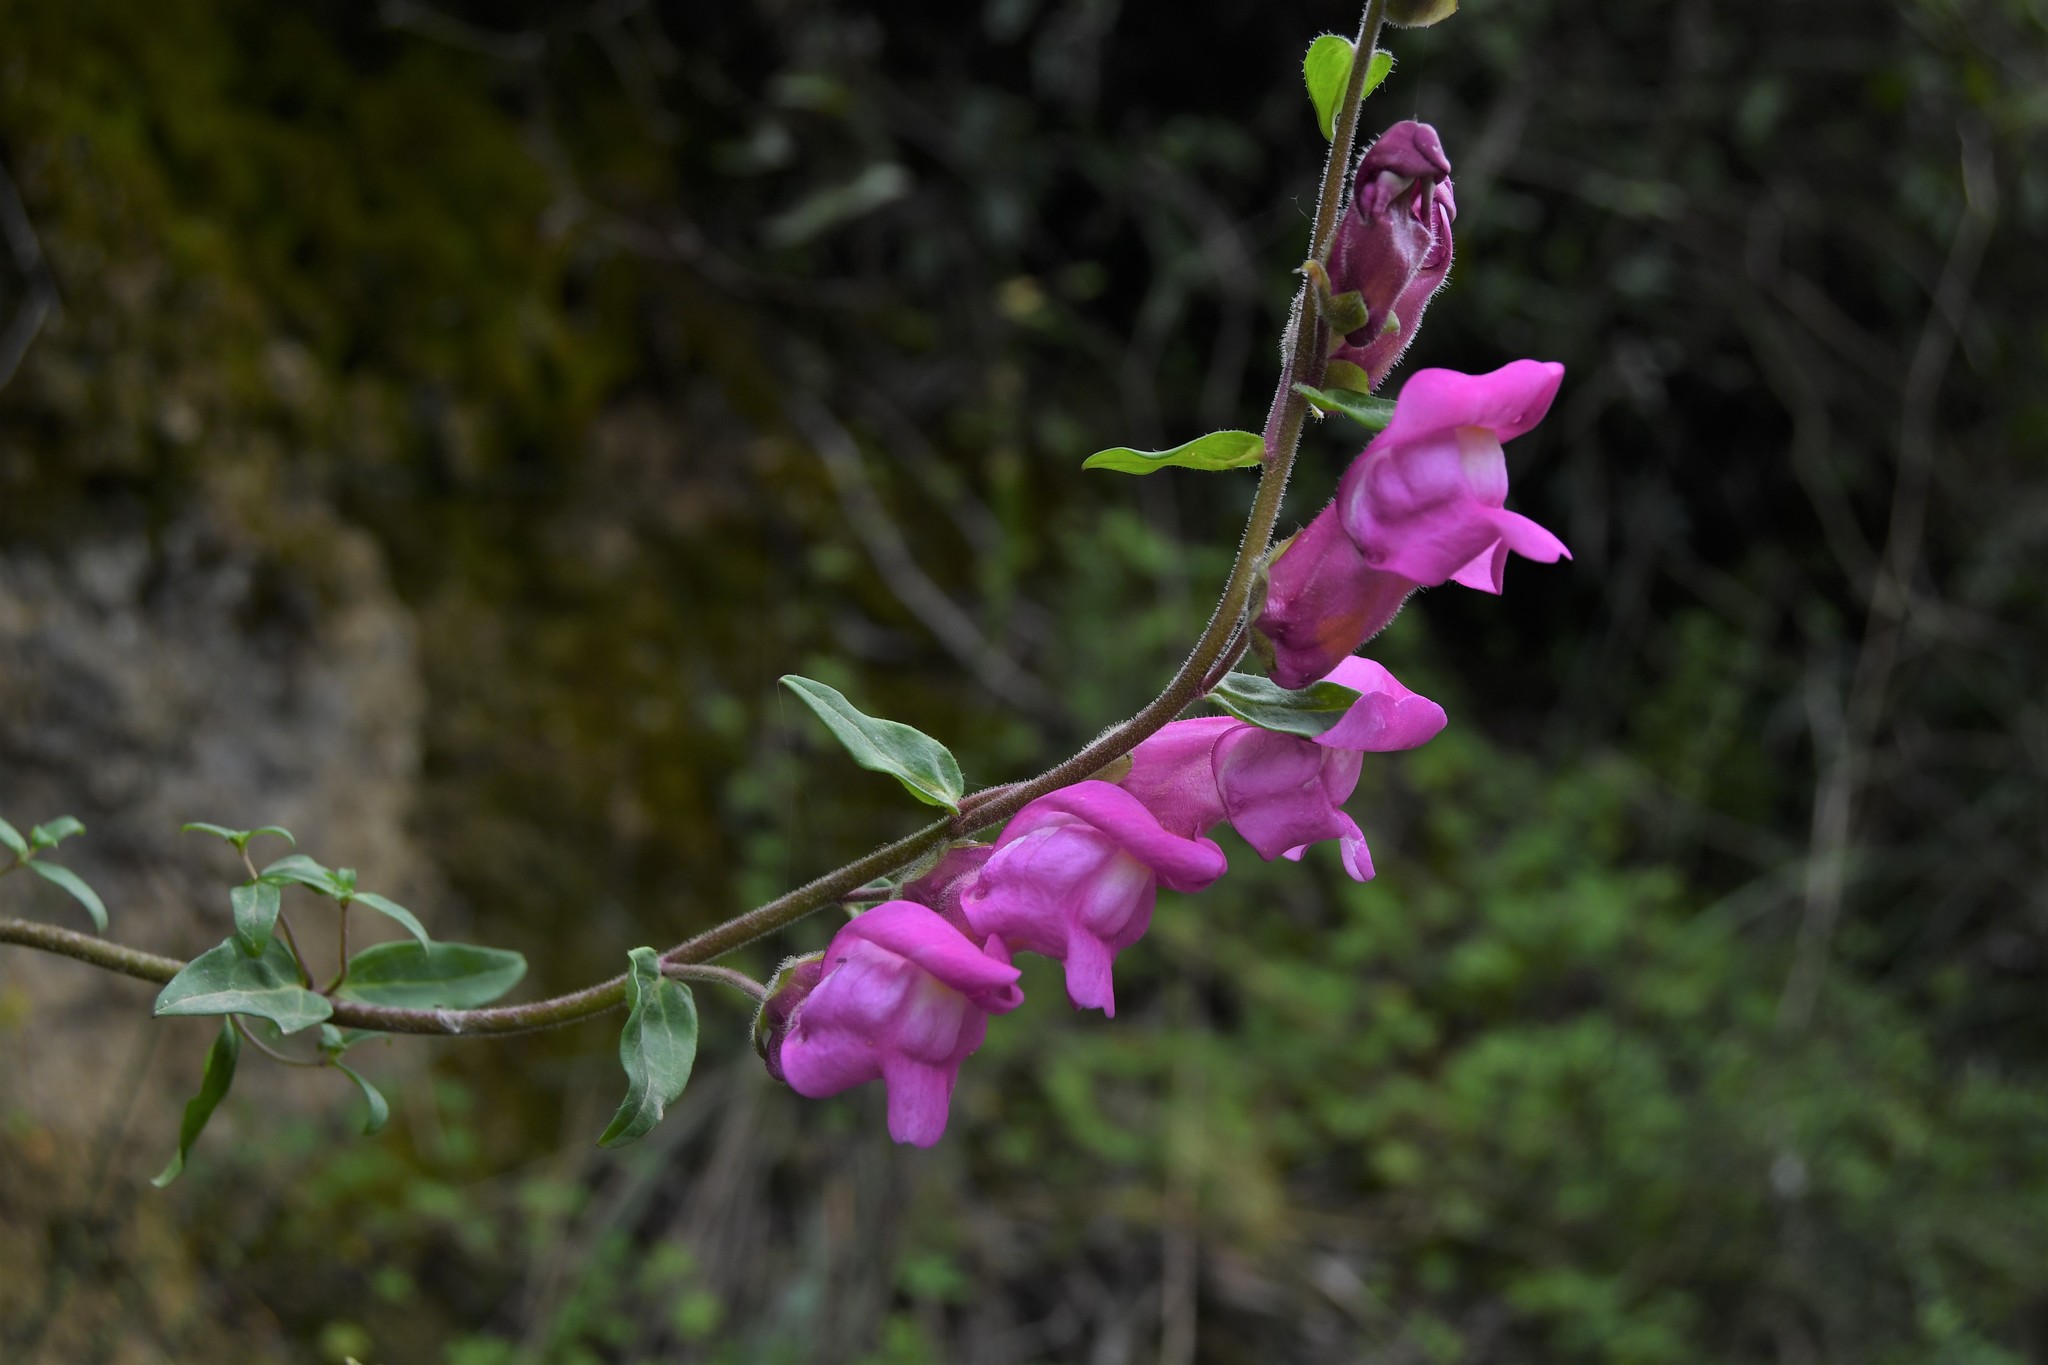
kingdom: Plantae
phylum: Tracheophyta
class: Magnoliopsida
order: Lamiales
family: Plantaginaceae
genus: Antirrhinum
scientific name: Antirrhinum linkianum
